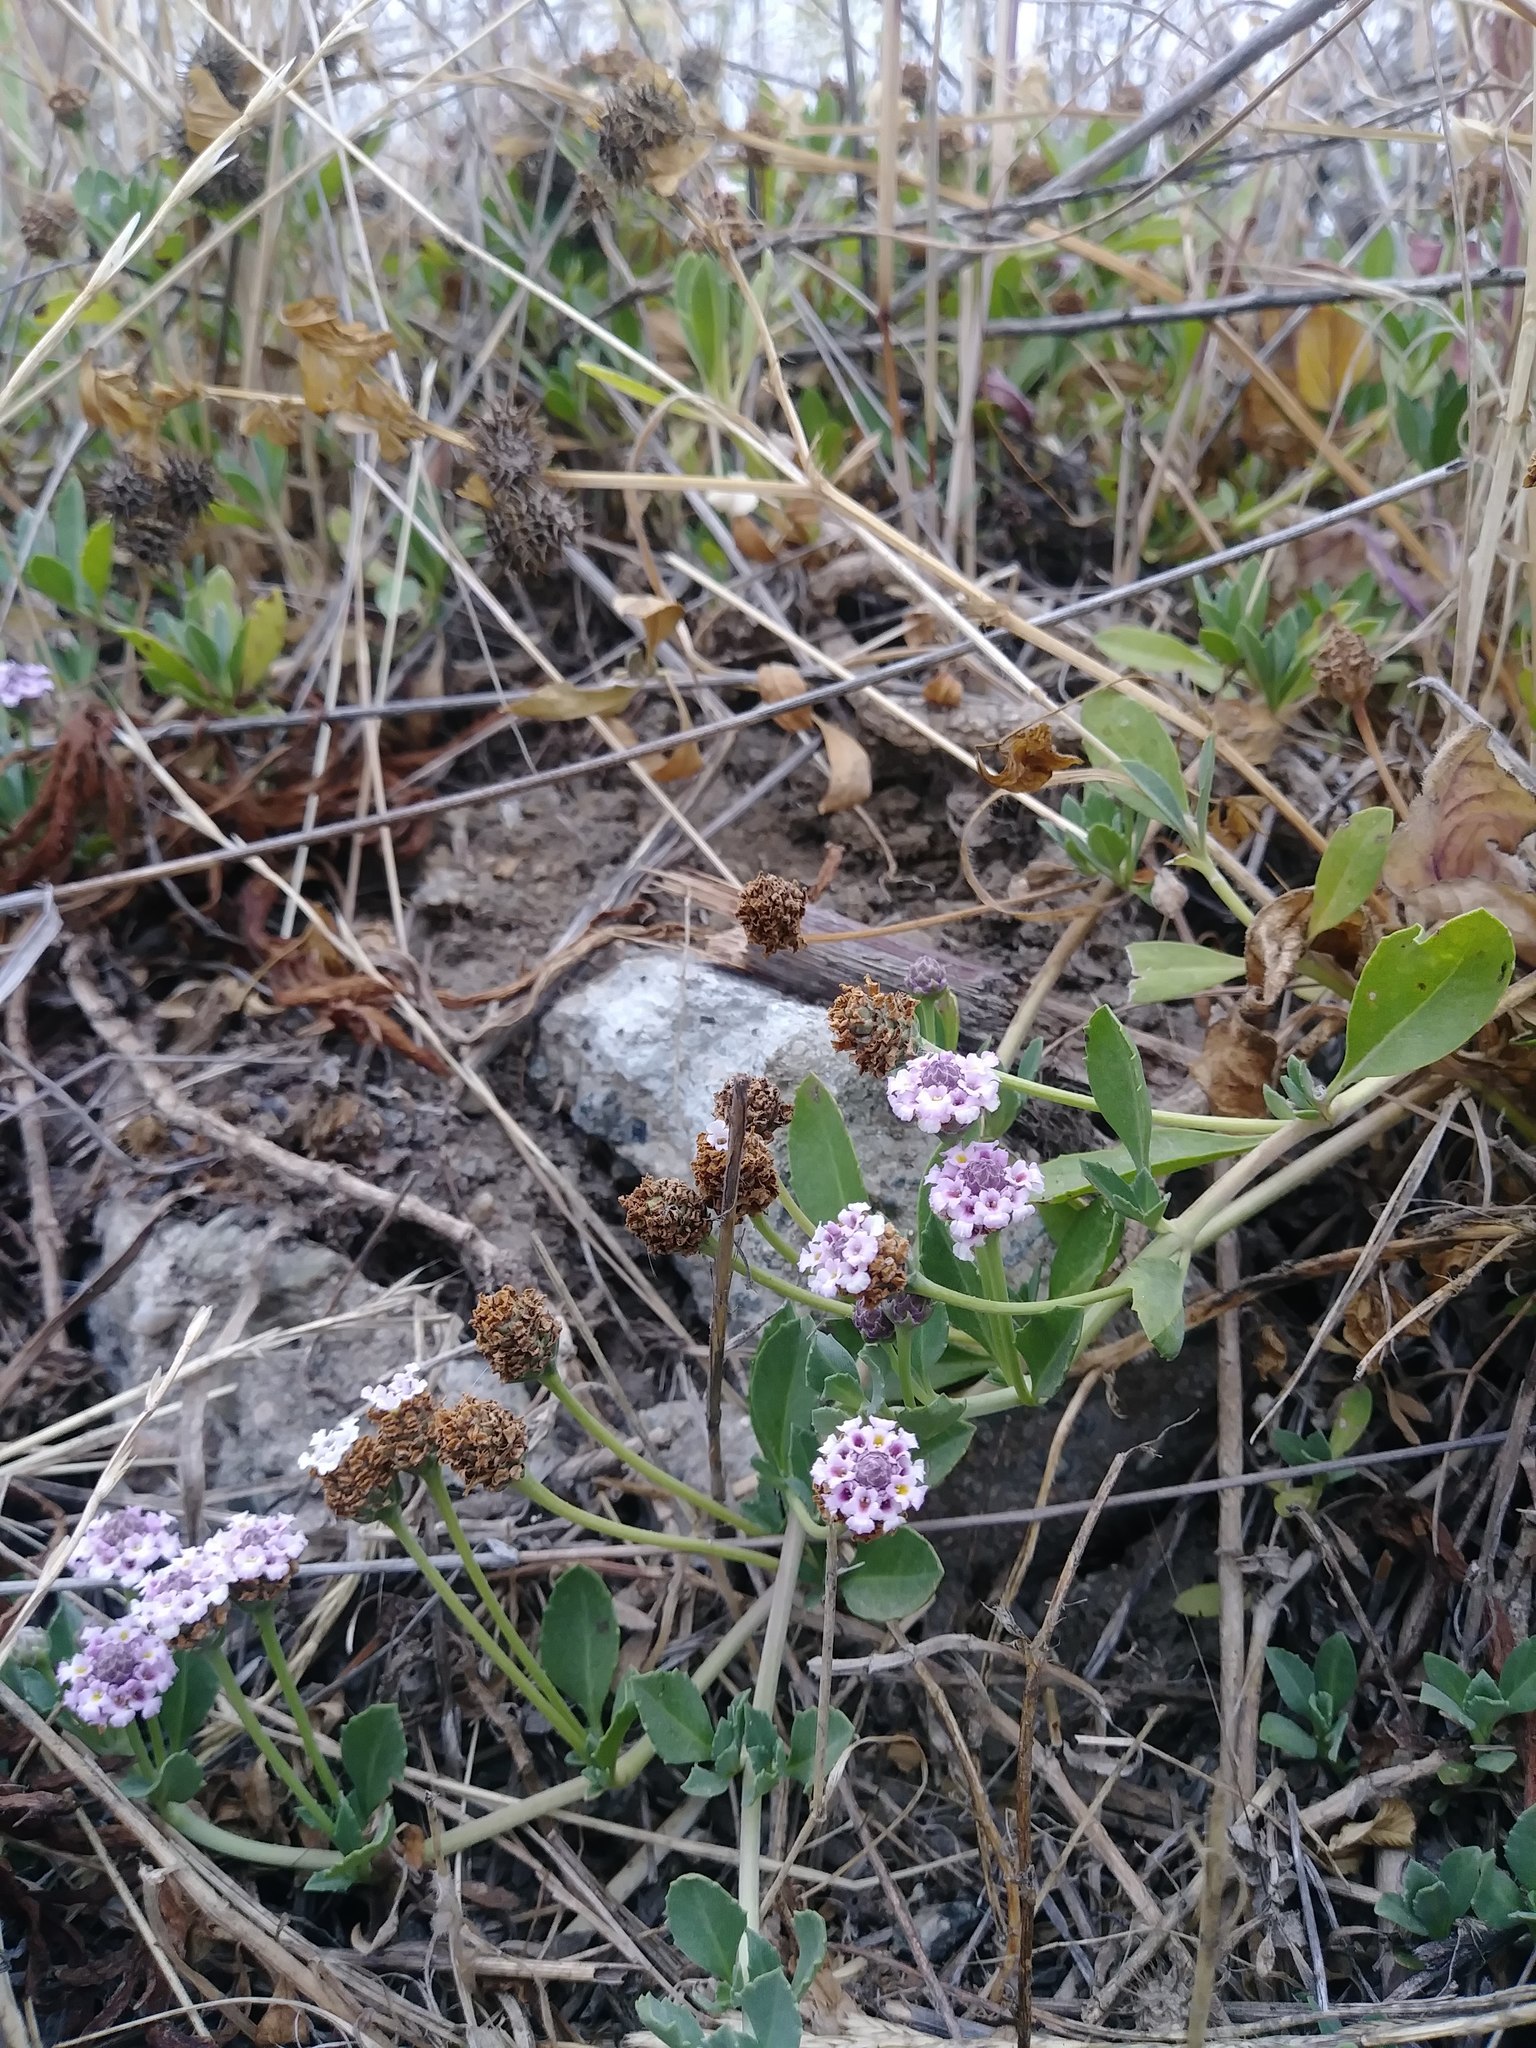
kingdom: Plantae
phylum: Tracheophyta
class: Magnoliopsida
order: Lamiales
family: Verbenaceae
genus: Phyla
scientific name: Phyla nodiflora
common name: Frogfruit
